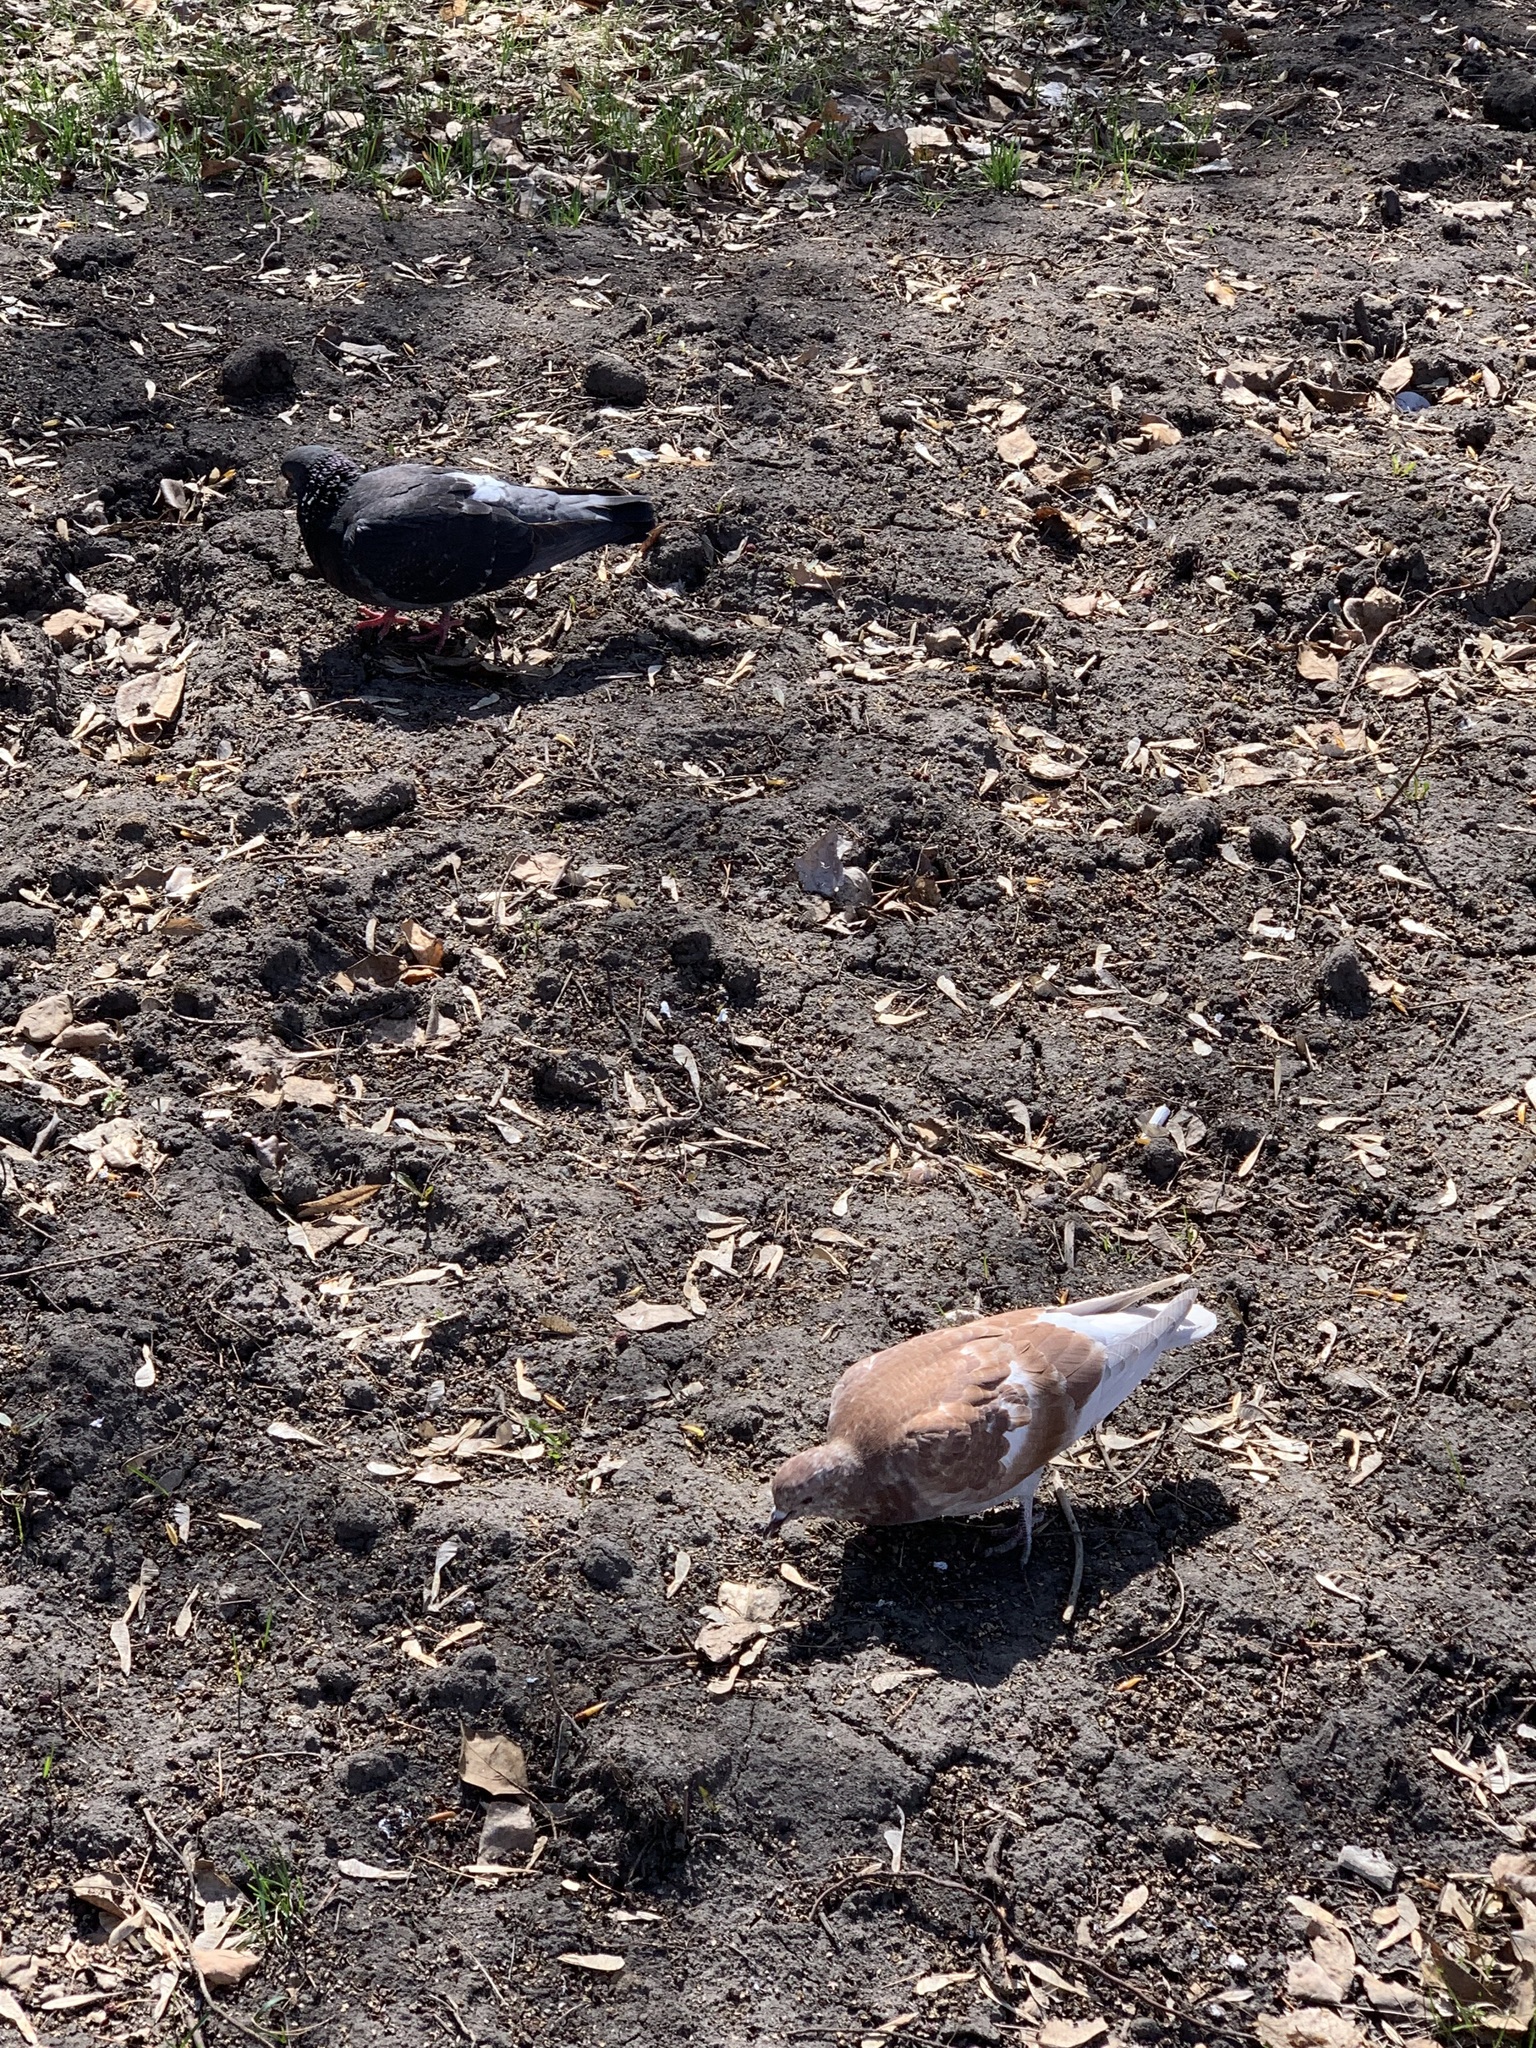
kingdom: Animalia
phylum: Chordata
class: Aves
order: Columbiformes
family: Columbidae
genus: Columba
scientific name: Columba livia
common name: Rock pigeon
